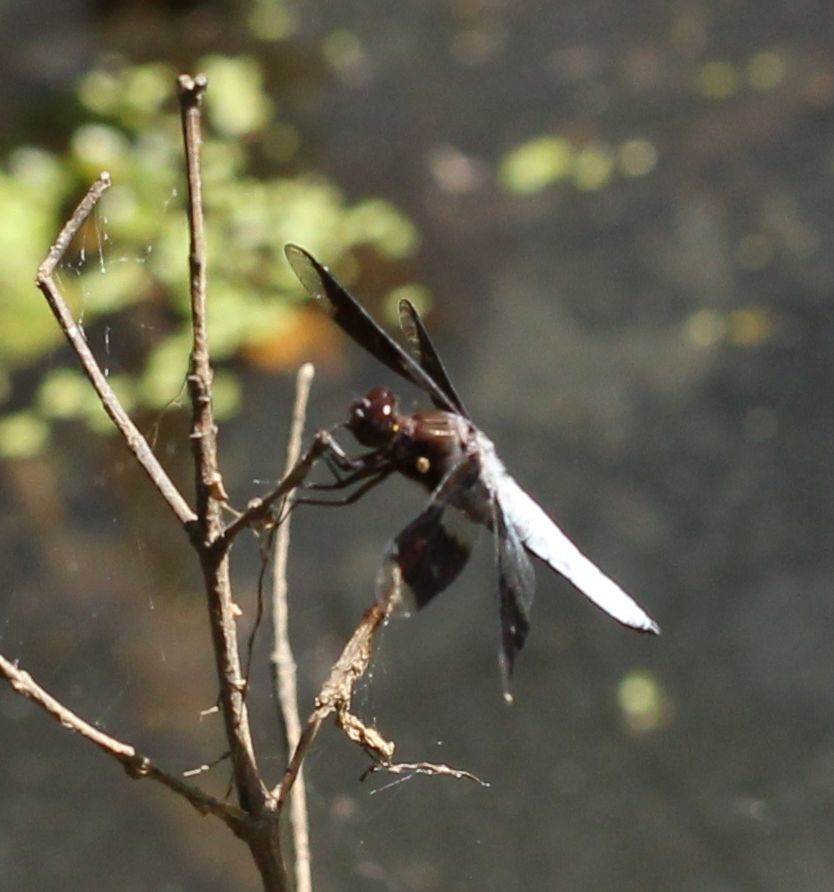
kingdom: Animalia
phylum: Arthropoda
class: Insecta
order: Odonata
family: Libellulidae
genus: Plathemis
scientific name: Plathemis lydia
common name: Common whitetail
